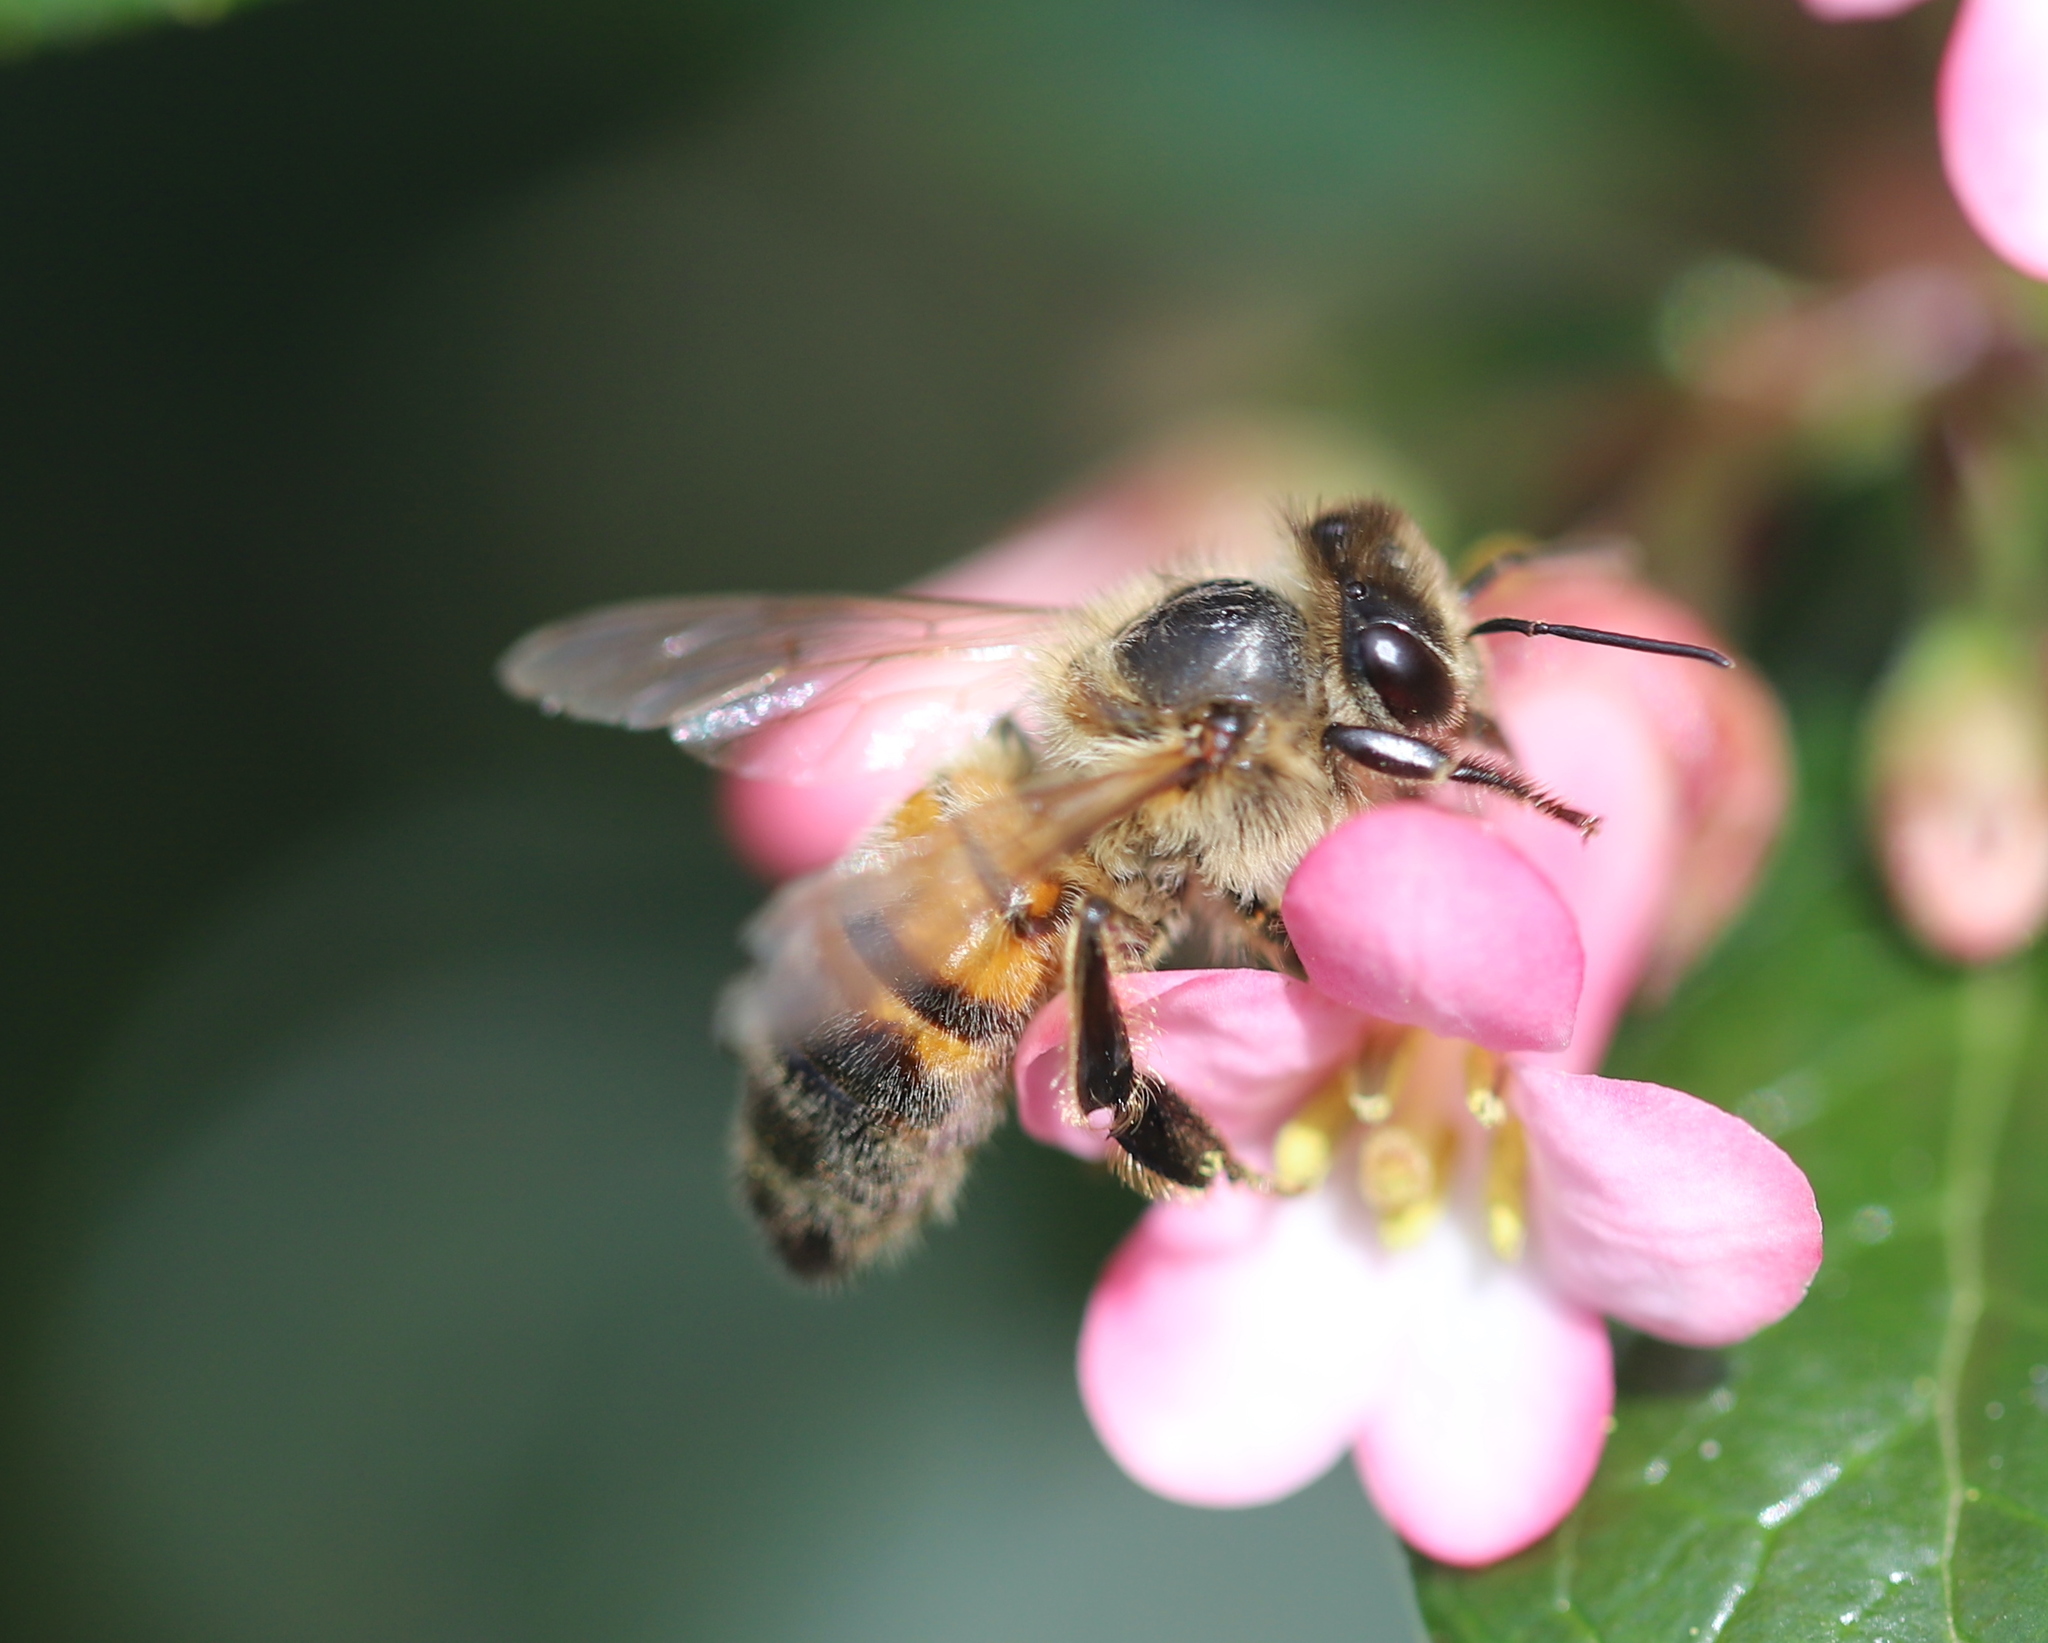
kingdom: Animalia
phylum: Arthropoda
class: Insecta
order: Hymenoptera
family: Apidae
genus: Apis
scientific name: Apis mellifera
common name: Honey bee
